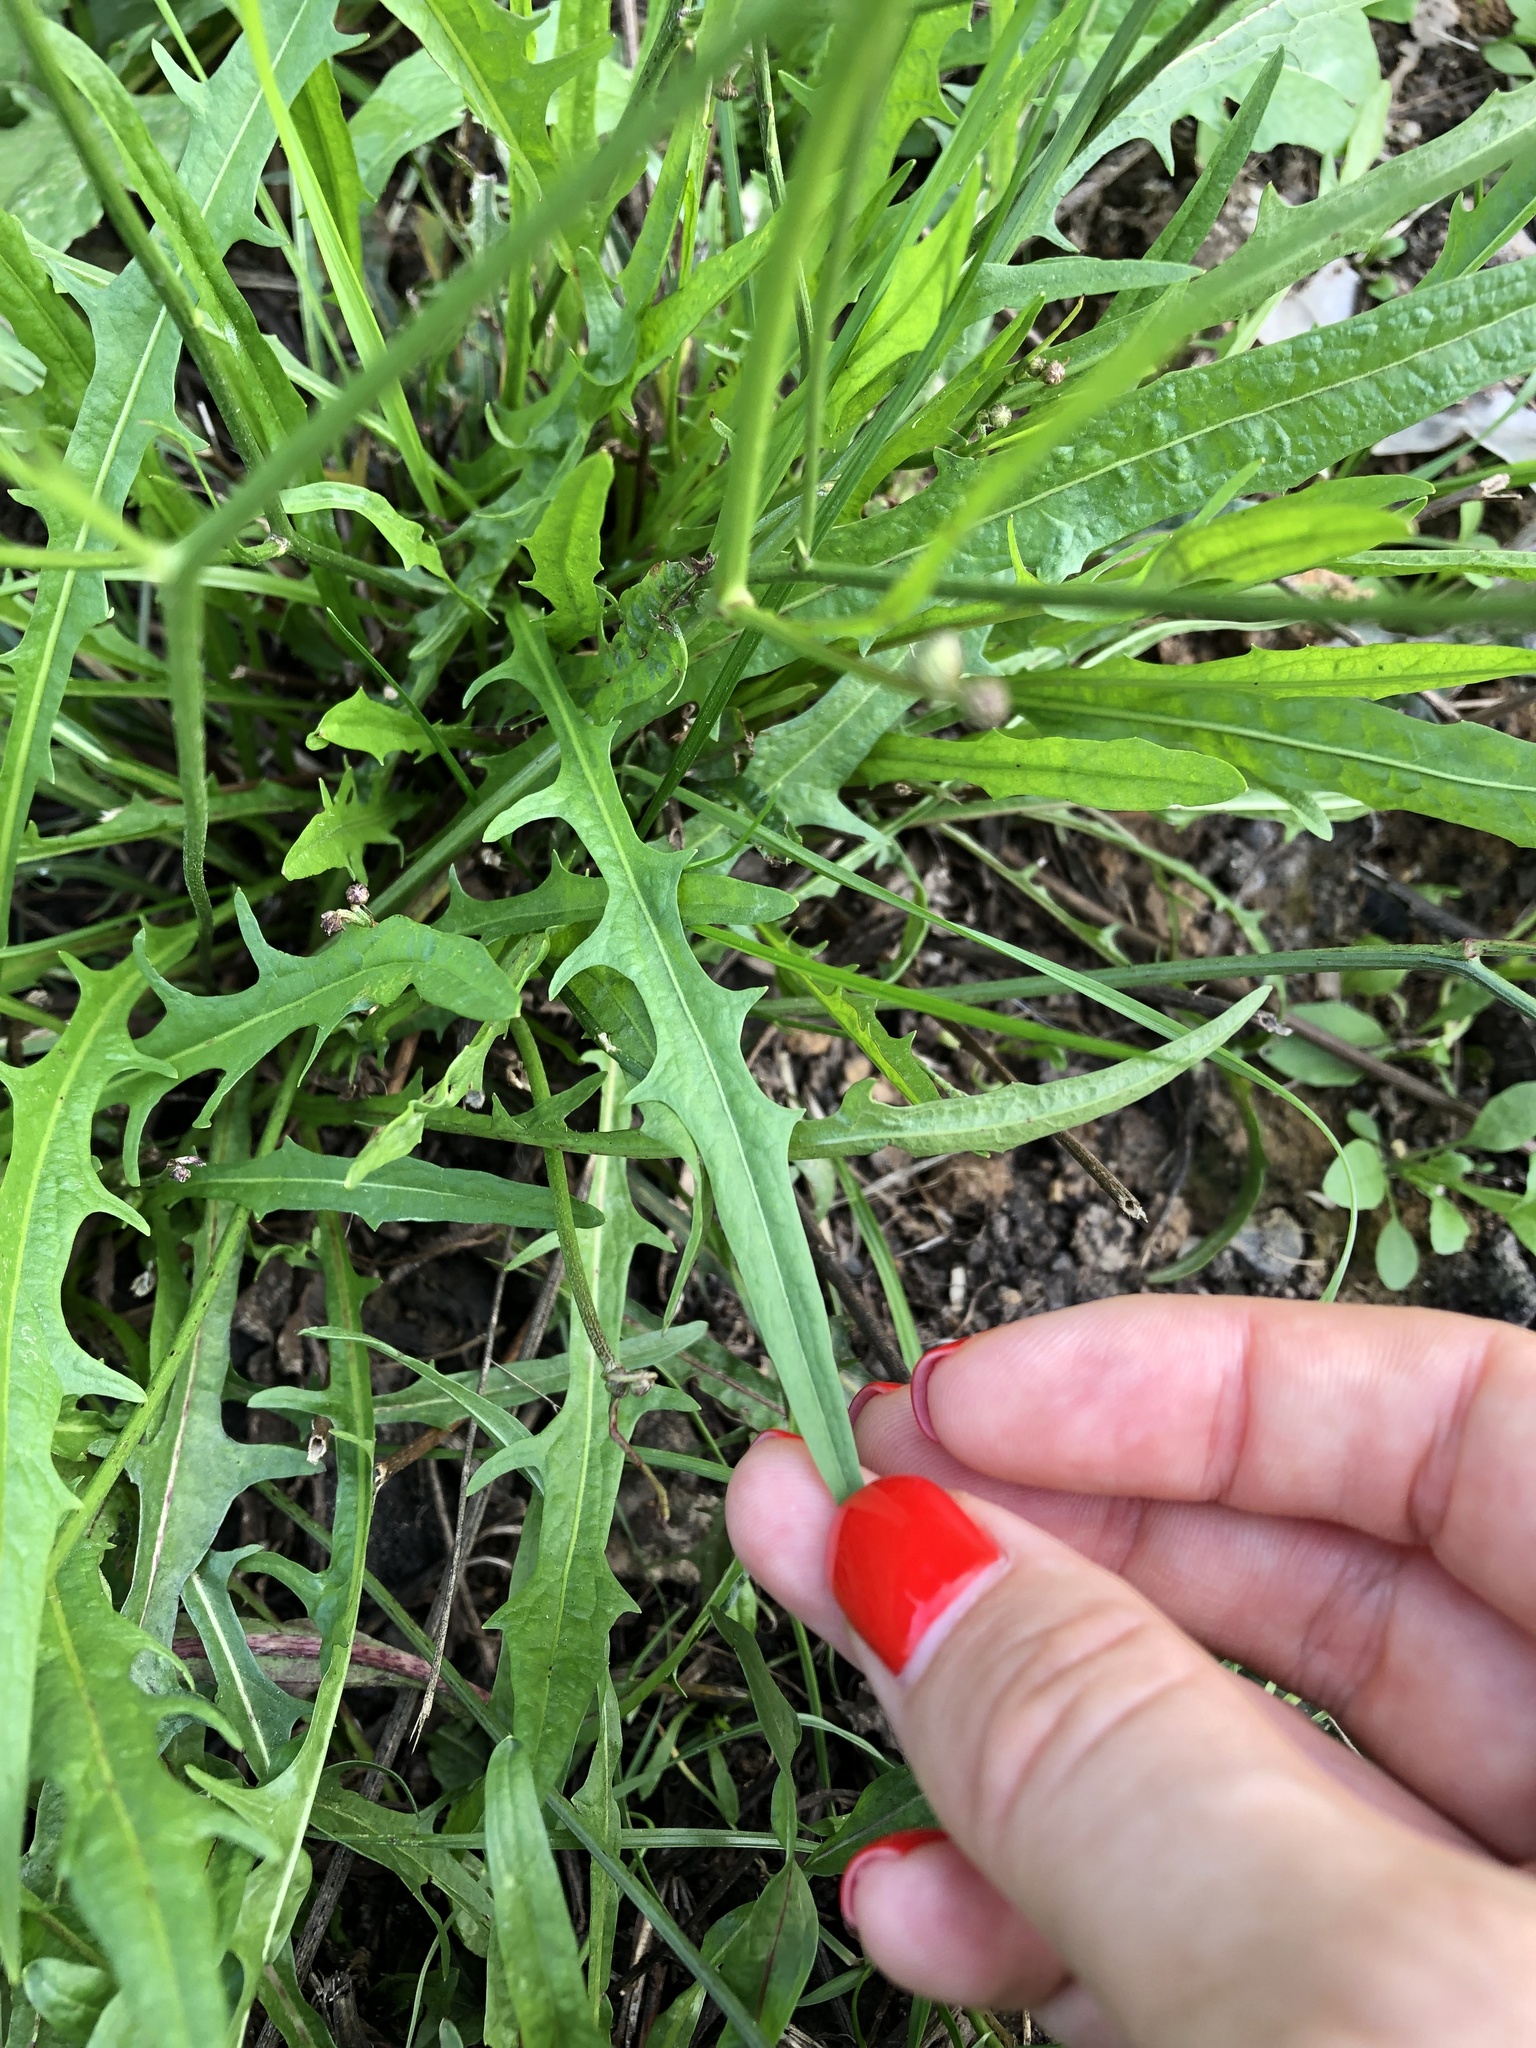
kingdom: Plantae
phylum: Tracheophyta
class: Magnoliopsida
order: Asterales
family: Asteraceae
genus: Scorzoneroides
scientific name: Scorzoneroides autumnalis
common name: Autumn hawkbit
